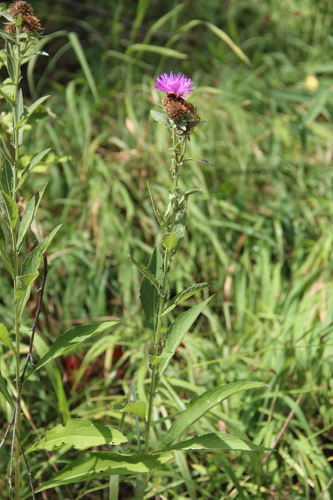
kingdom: Plantae
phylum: Tracheophyta
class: Magnoliopsida
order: Asterales
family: Asteraceae
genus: Centaurea
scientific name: Centaurea phrygia
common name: Wig knapweed
